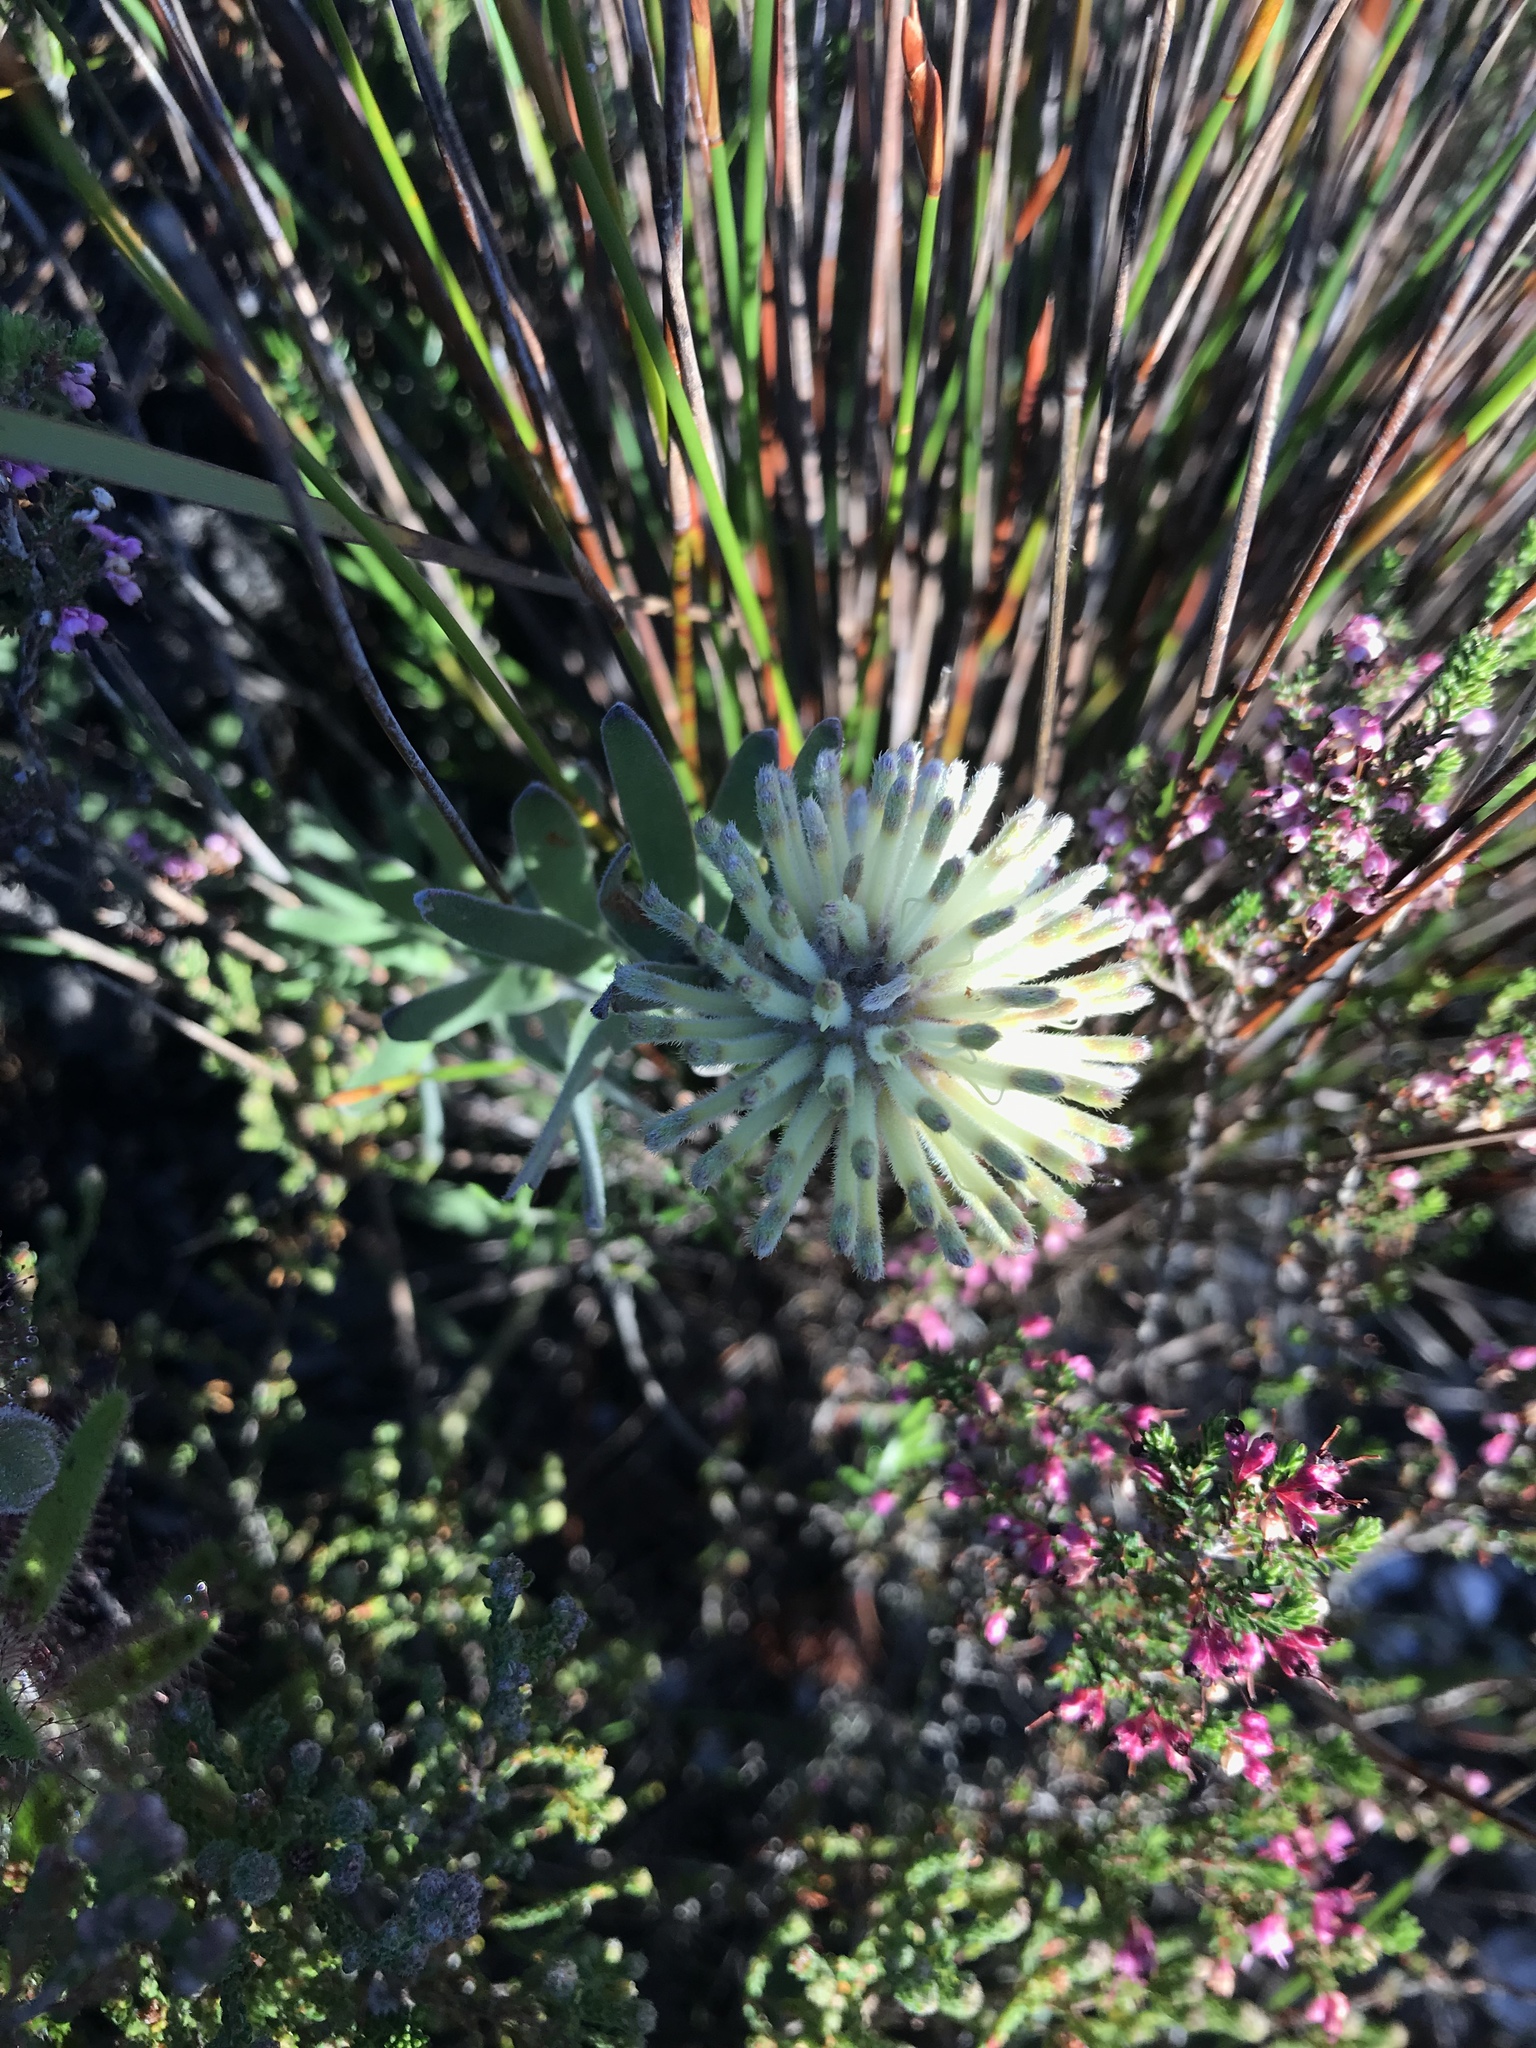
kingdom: Plantae
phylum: Tracheophyta
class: Magnoliopsida
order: Proteales
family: Proteaceae
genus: Leucospermum
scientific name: Leucospermum pedunculatum
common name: White-trailing pincushion
